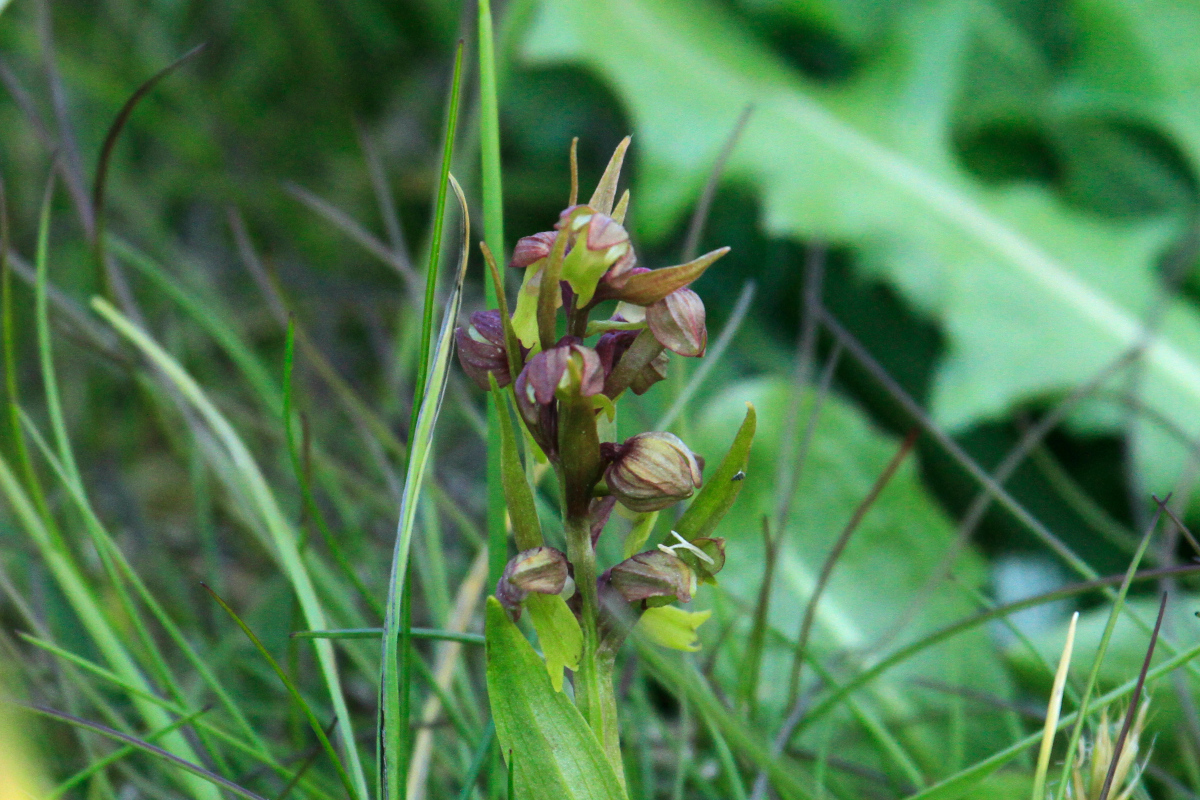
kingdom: Plantae
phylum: Tracheophyta
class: Liliopsida
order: Asparagales
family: Orchidaceae
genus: Dactylorhiza
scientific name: Dactylorhiza viridis
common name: Longbract frog orchid
